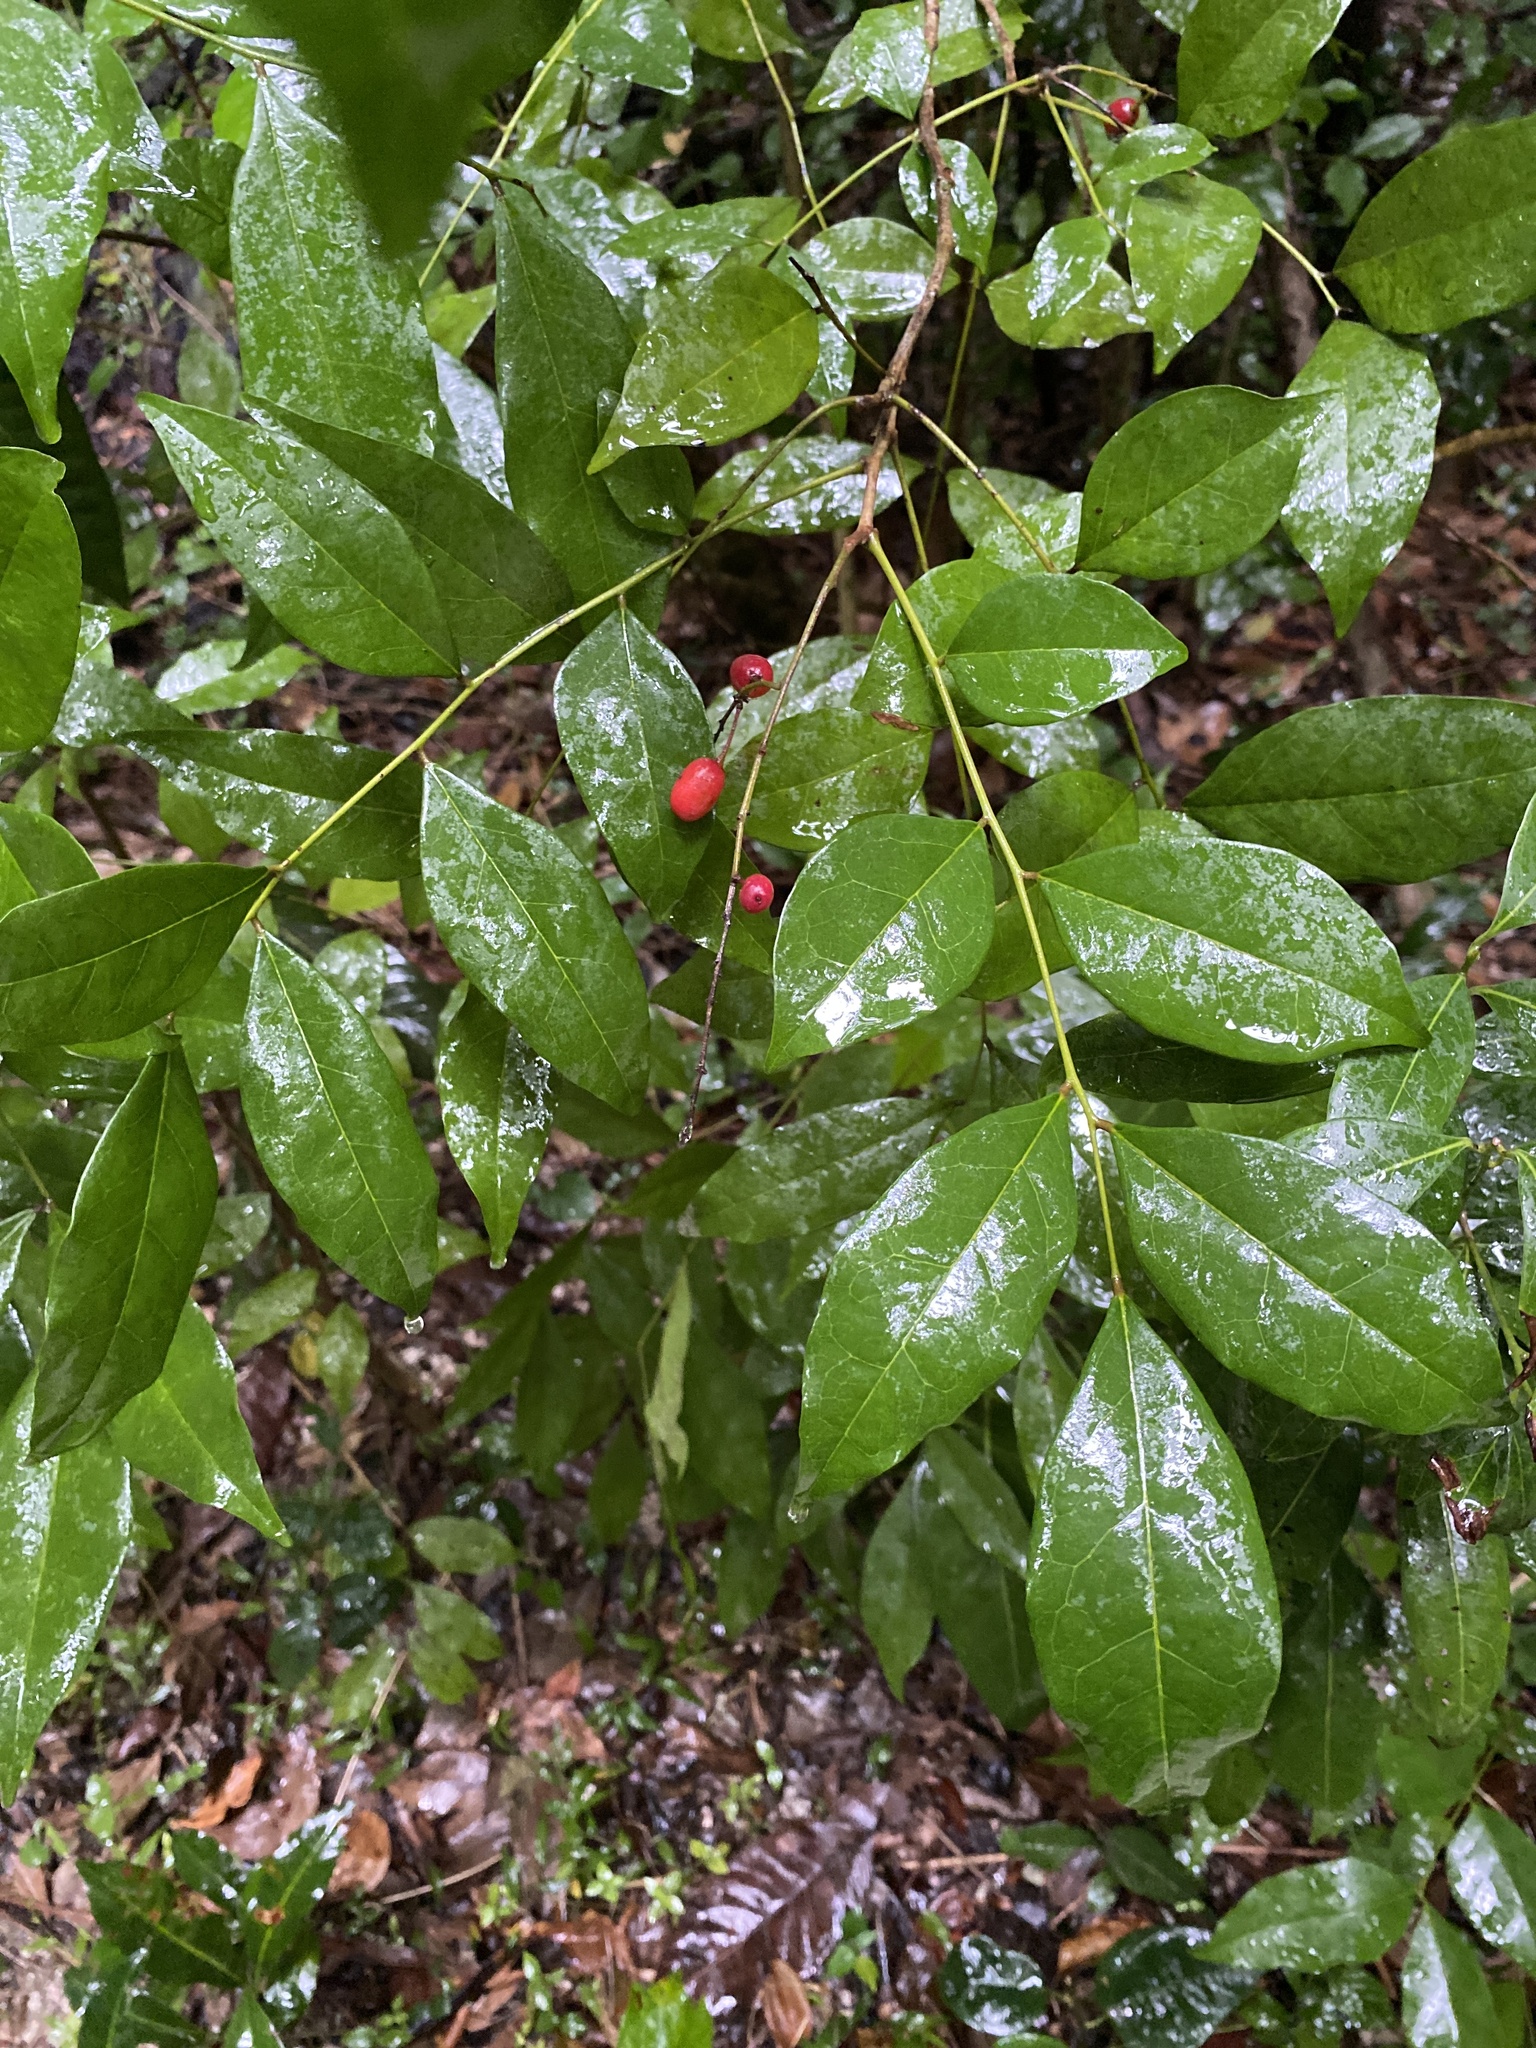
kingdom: Plantae
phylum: Tracheophyta
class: Magnoliopsida
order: Picramniales
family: Picramniaceae
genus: Picramnia
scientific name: Picramnia pentandra
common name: Florida bitterbush
